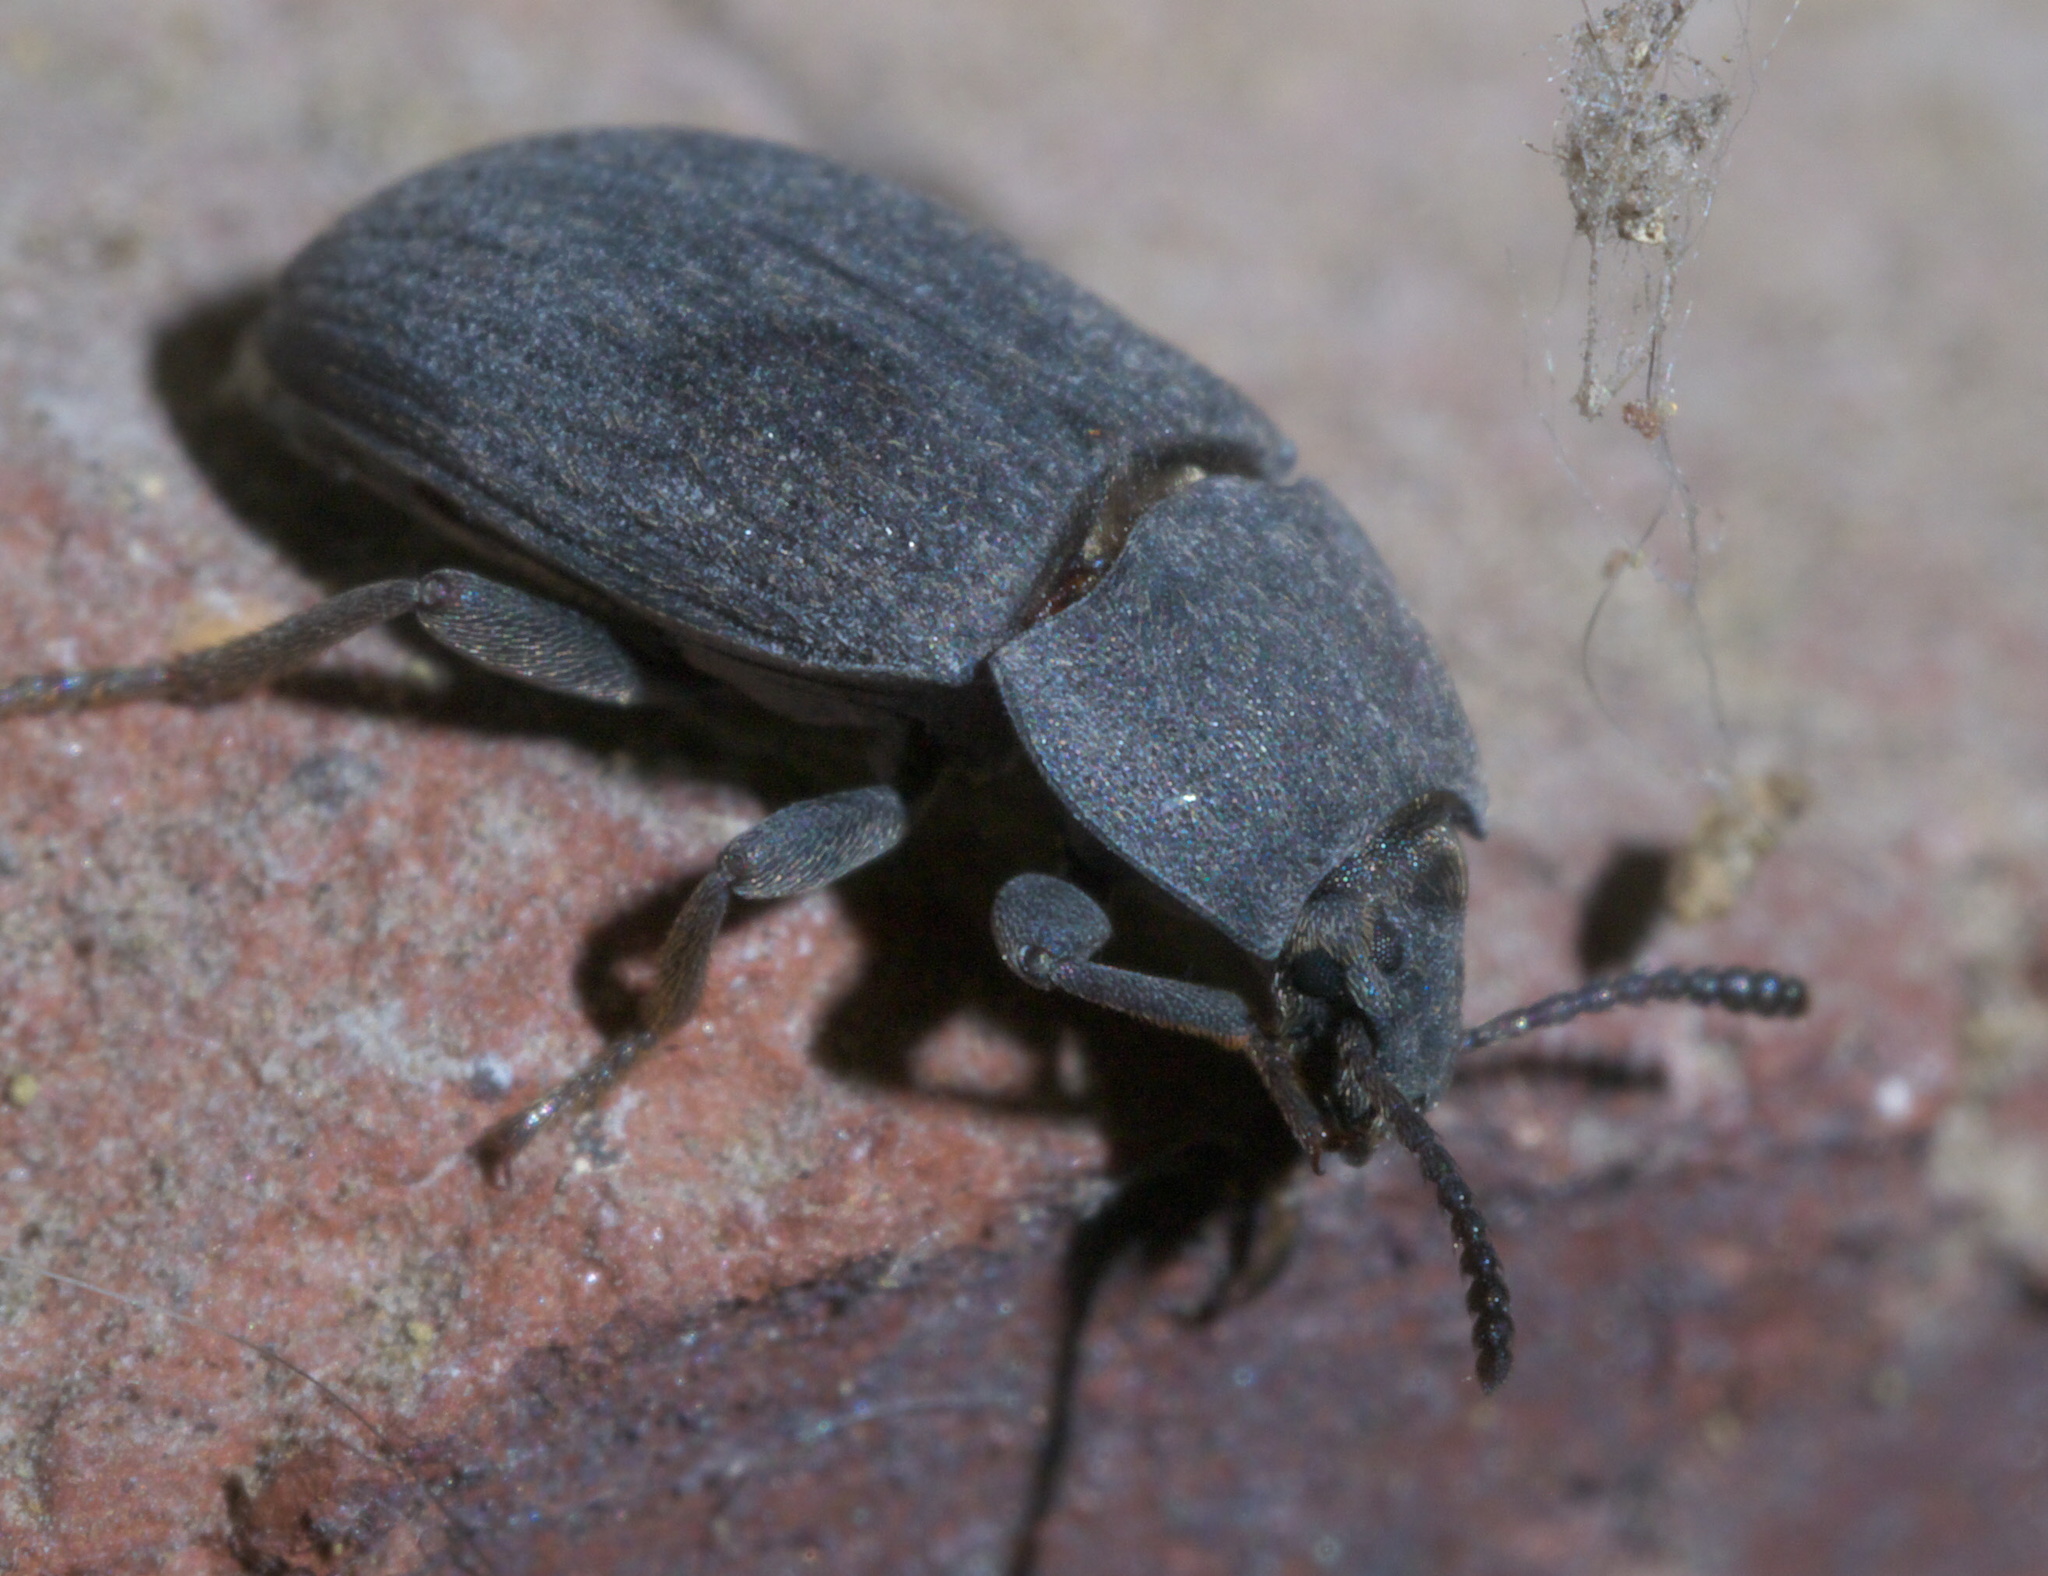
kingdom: Animalia
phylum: Arthropoda
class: Insecta
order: Coleoptera
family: Tenebrionidae
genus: Blapstinus
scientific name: Blapstinus fortis
